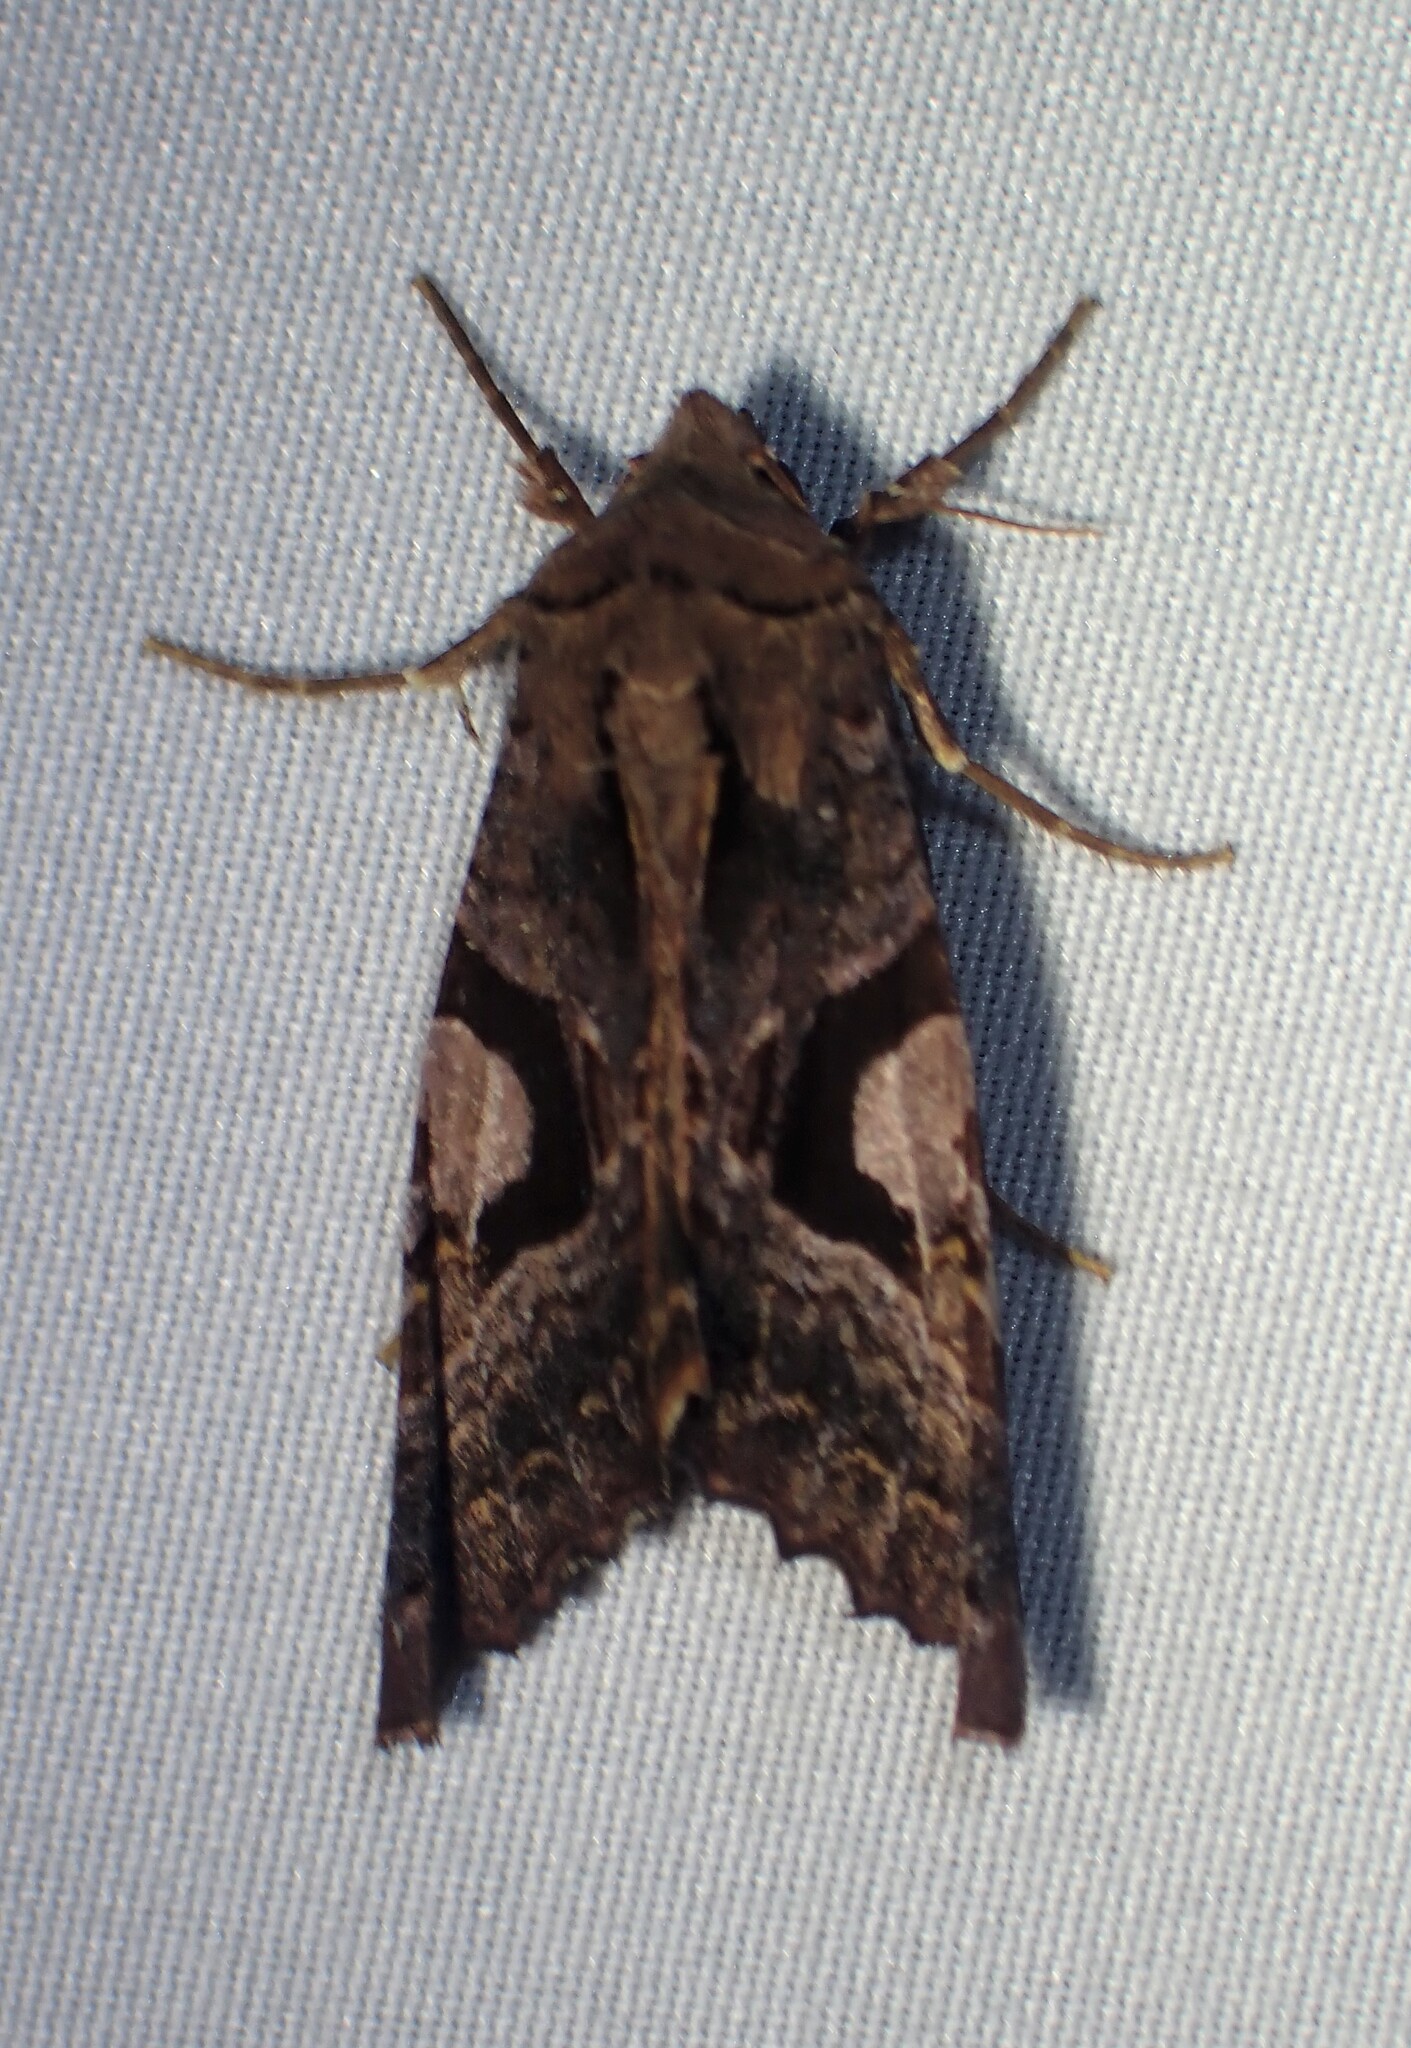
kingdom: Animalia
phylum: Arthropoda
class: Insecta
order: Lepidoptera
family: Noctuidae
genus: Phlogophora
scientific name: Phlogophora interrupta
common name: Owlet moth
